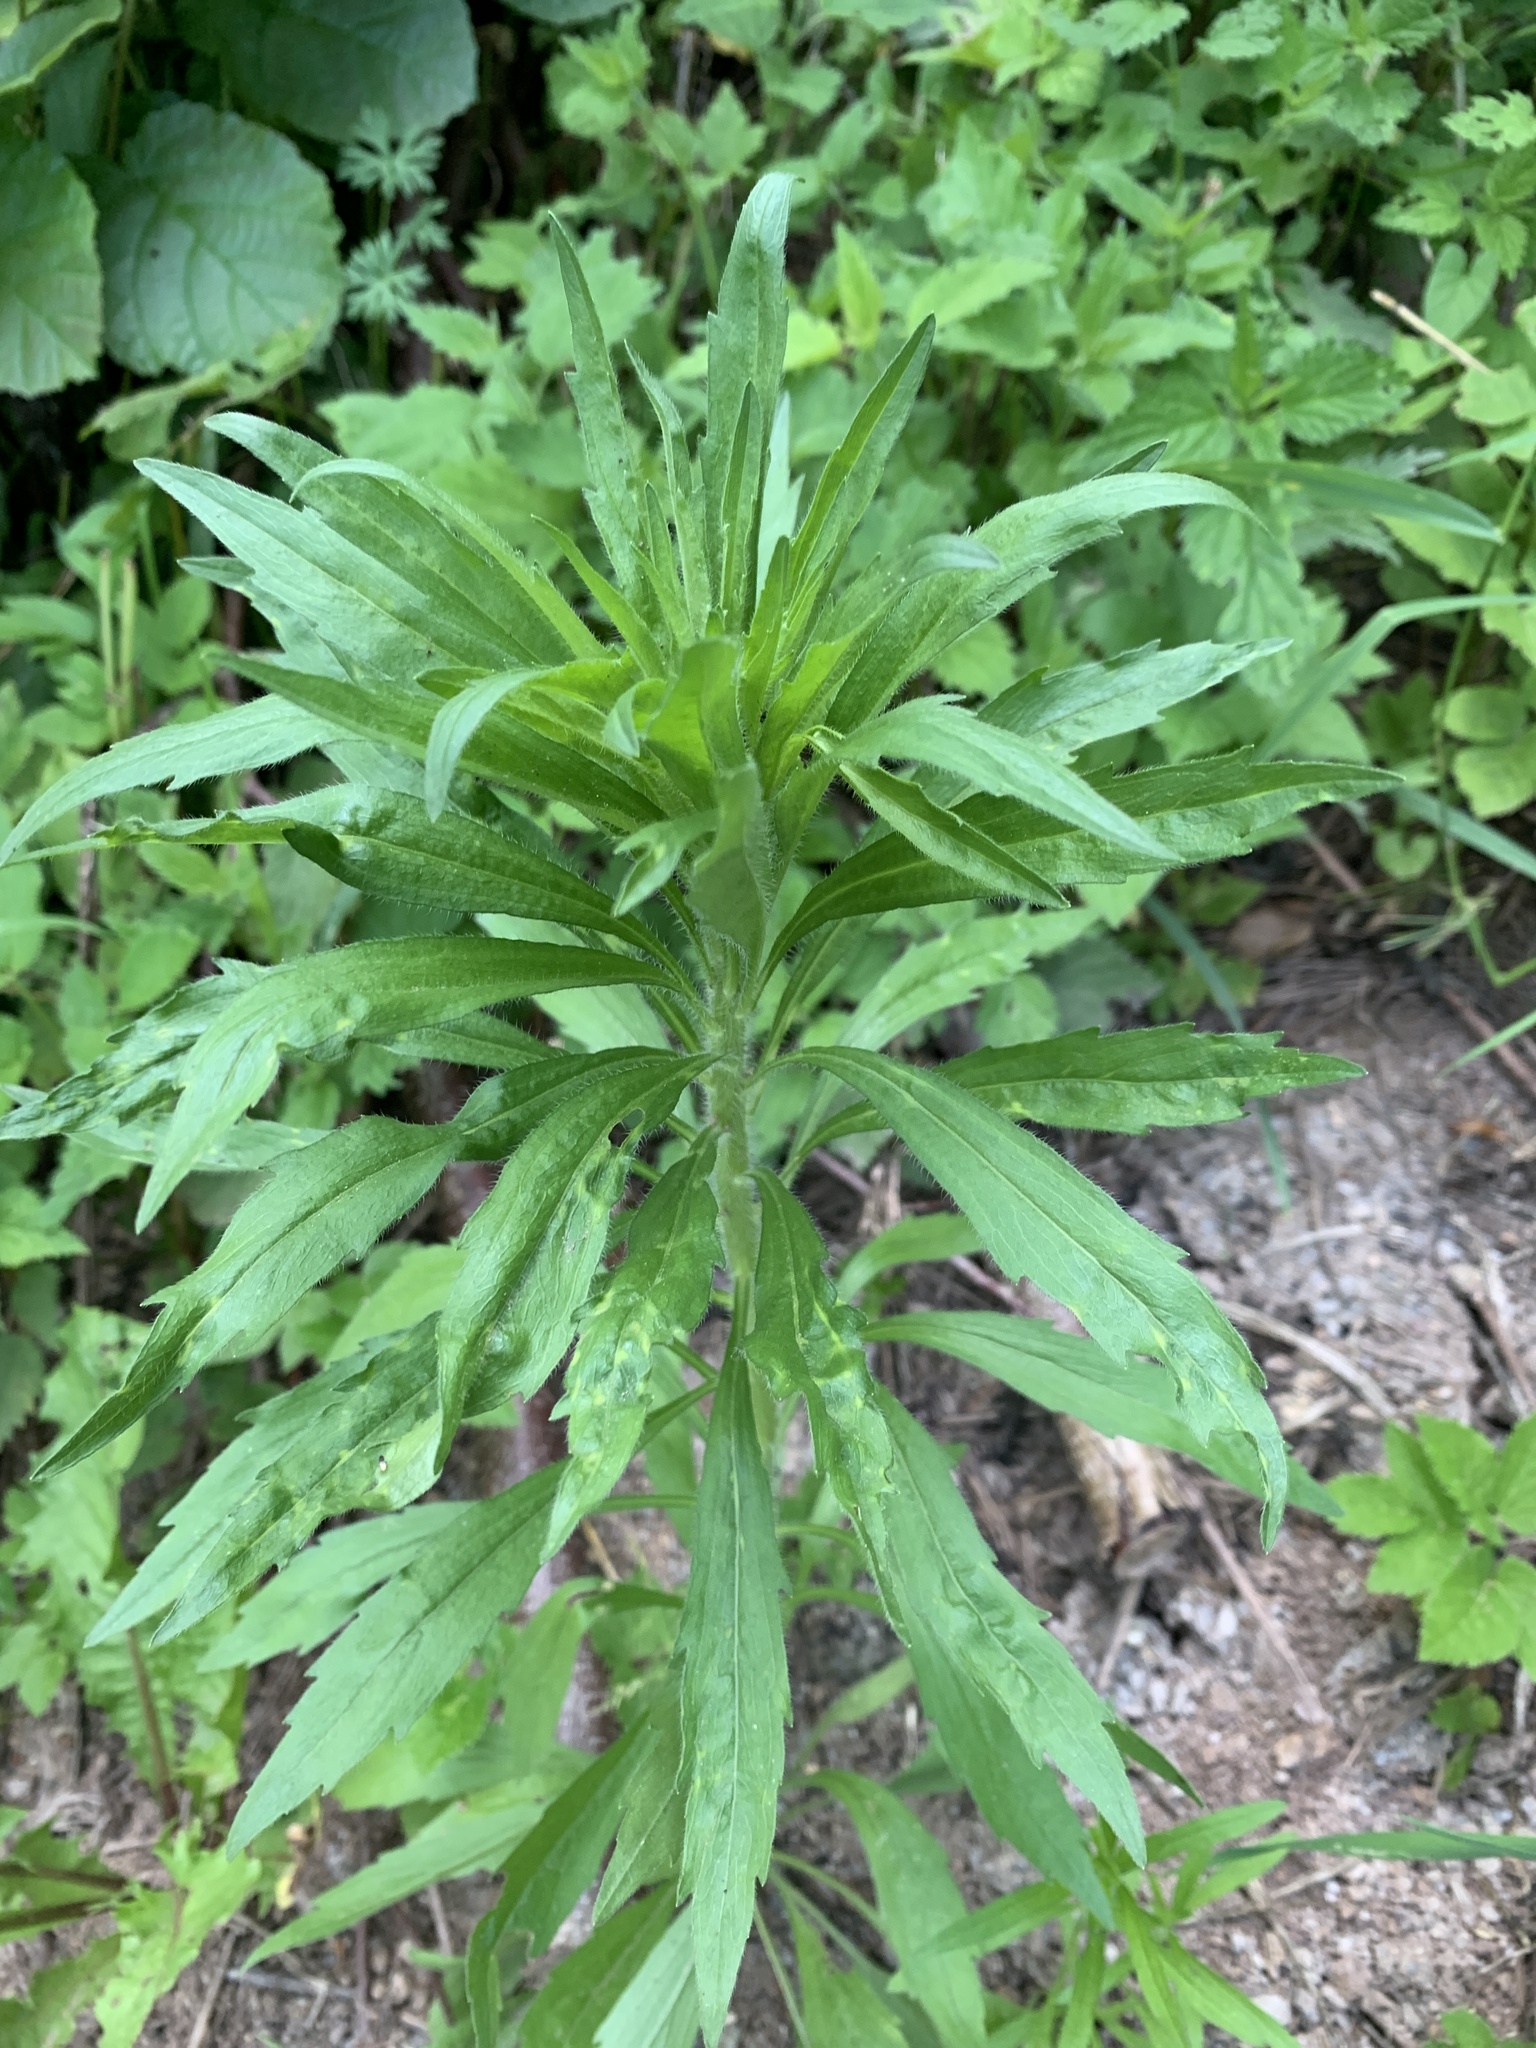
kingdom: Plantae
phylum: Tracheophyta
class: Magnoliopsida
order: Asterales
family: Asteraceae
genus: Solidago
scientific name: Solidago canadensis
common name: Canada goldenrod
